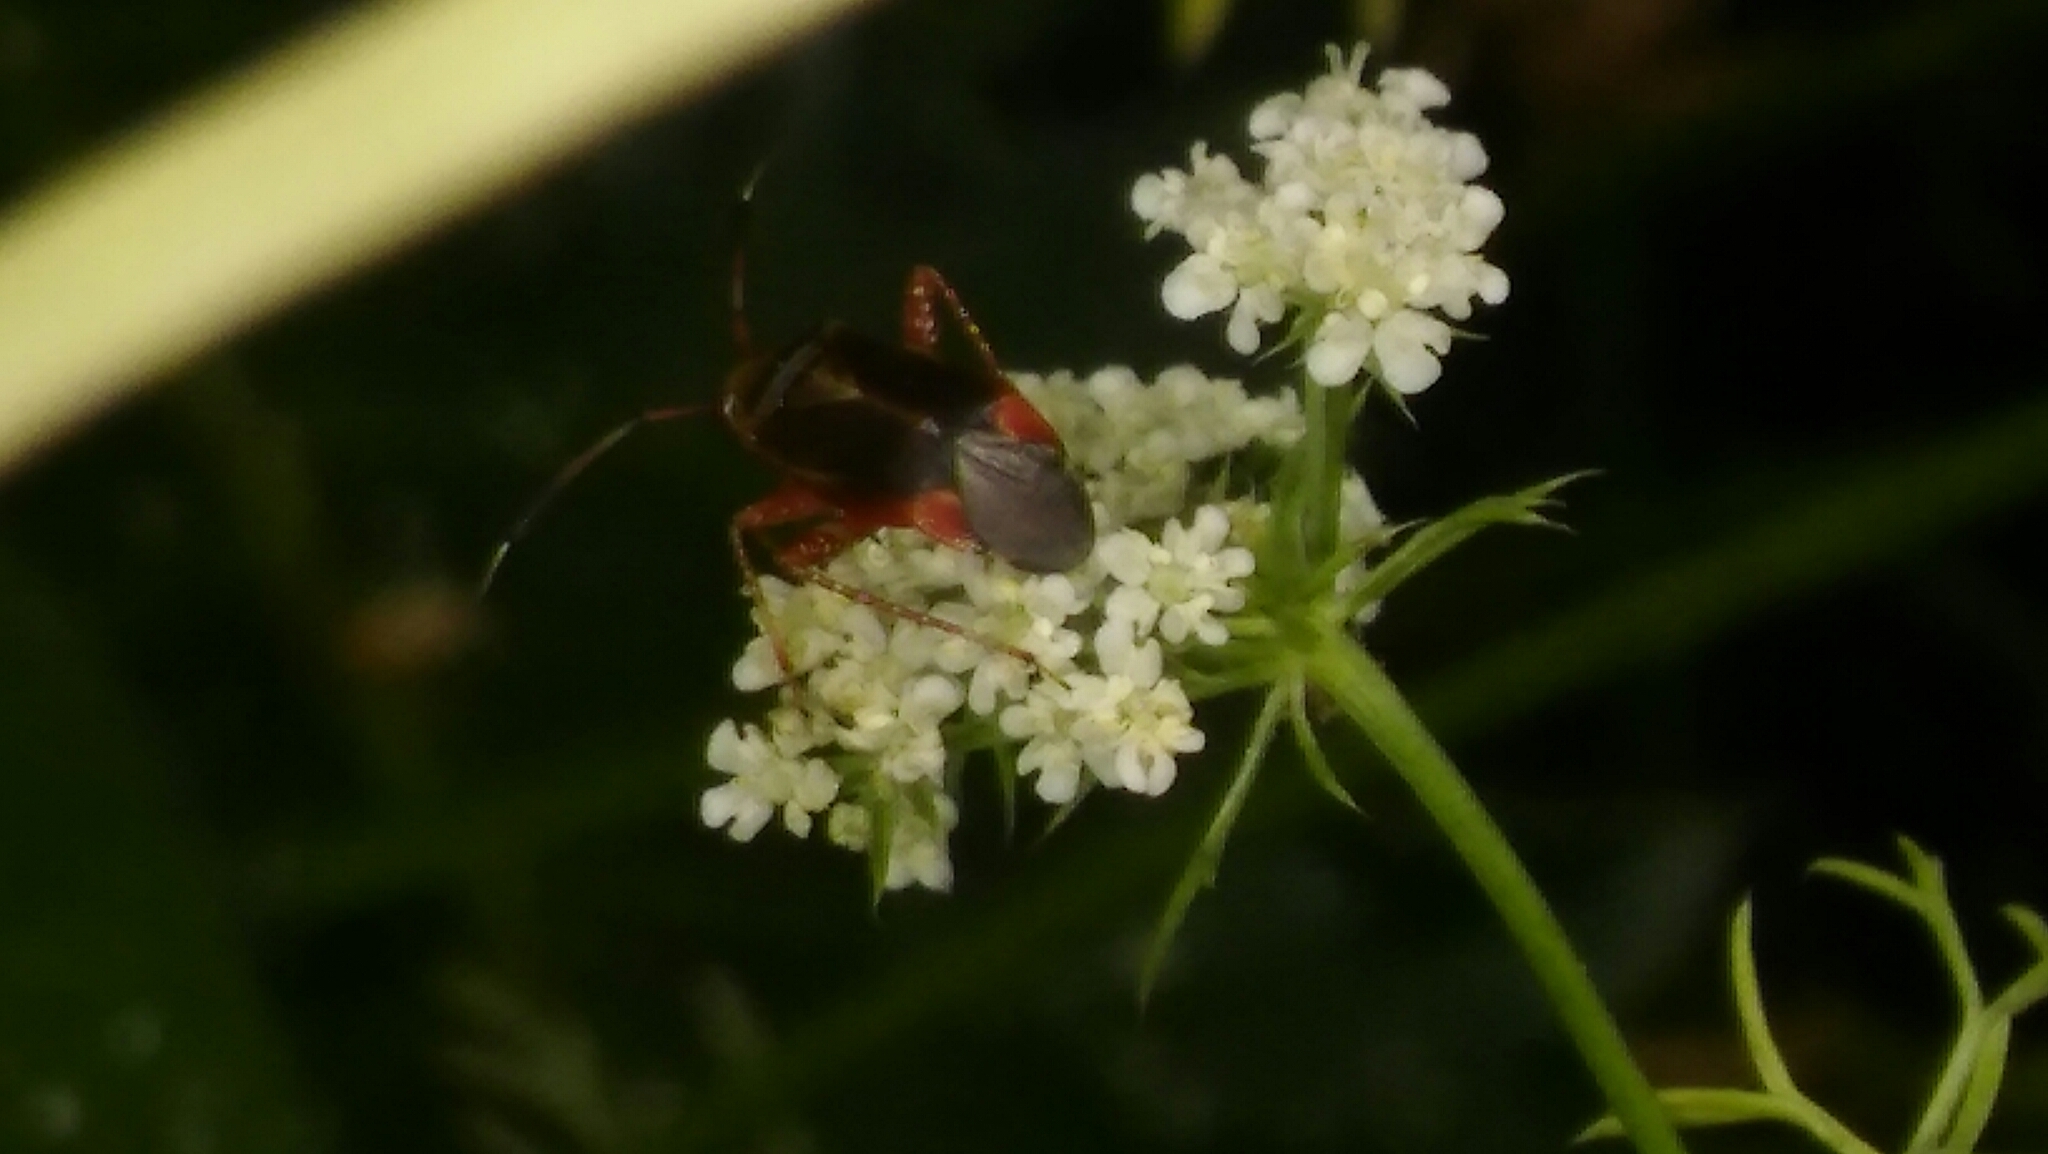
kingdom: Animalia
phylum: Arthropoda
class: Insecta
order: Hemiptera
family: Miridae
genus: Horciasinus
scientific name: Horciasinus argentinus
